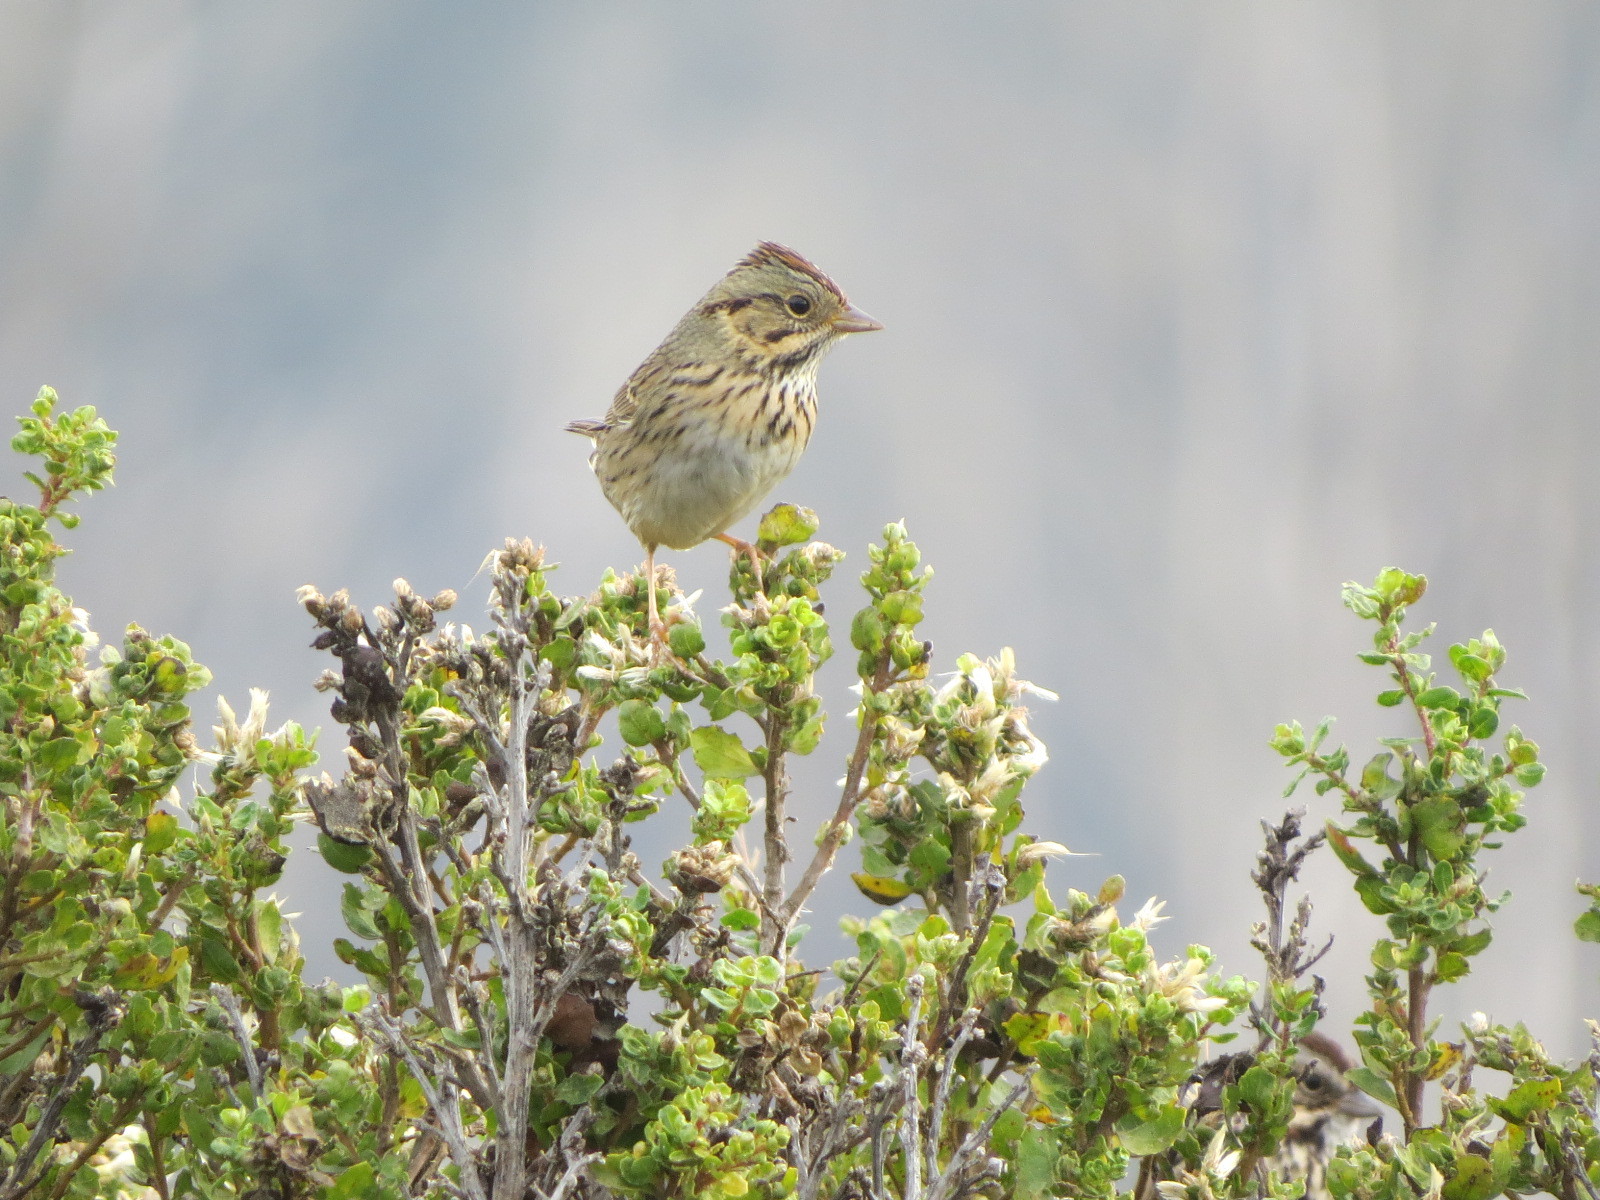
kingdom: Animalia
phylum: Chordata
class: Aves
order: Passeriformes
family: Passerellidae
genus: Melospiza
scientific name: Melospiza lincolnii
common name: Lincoln's sparrow
